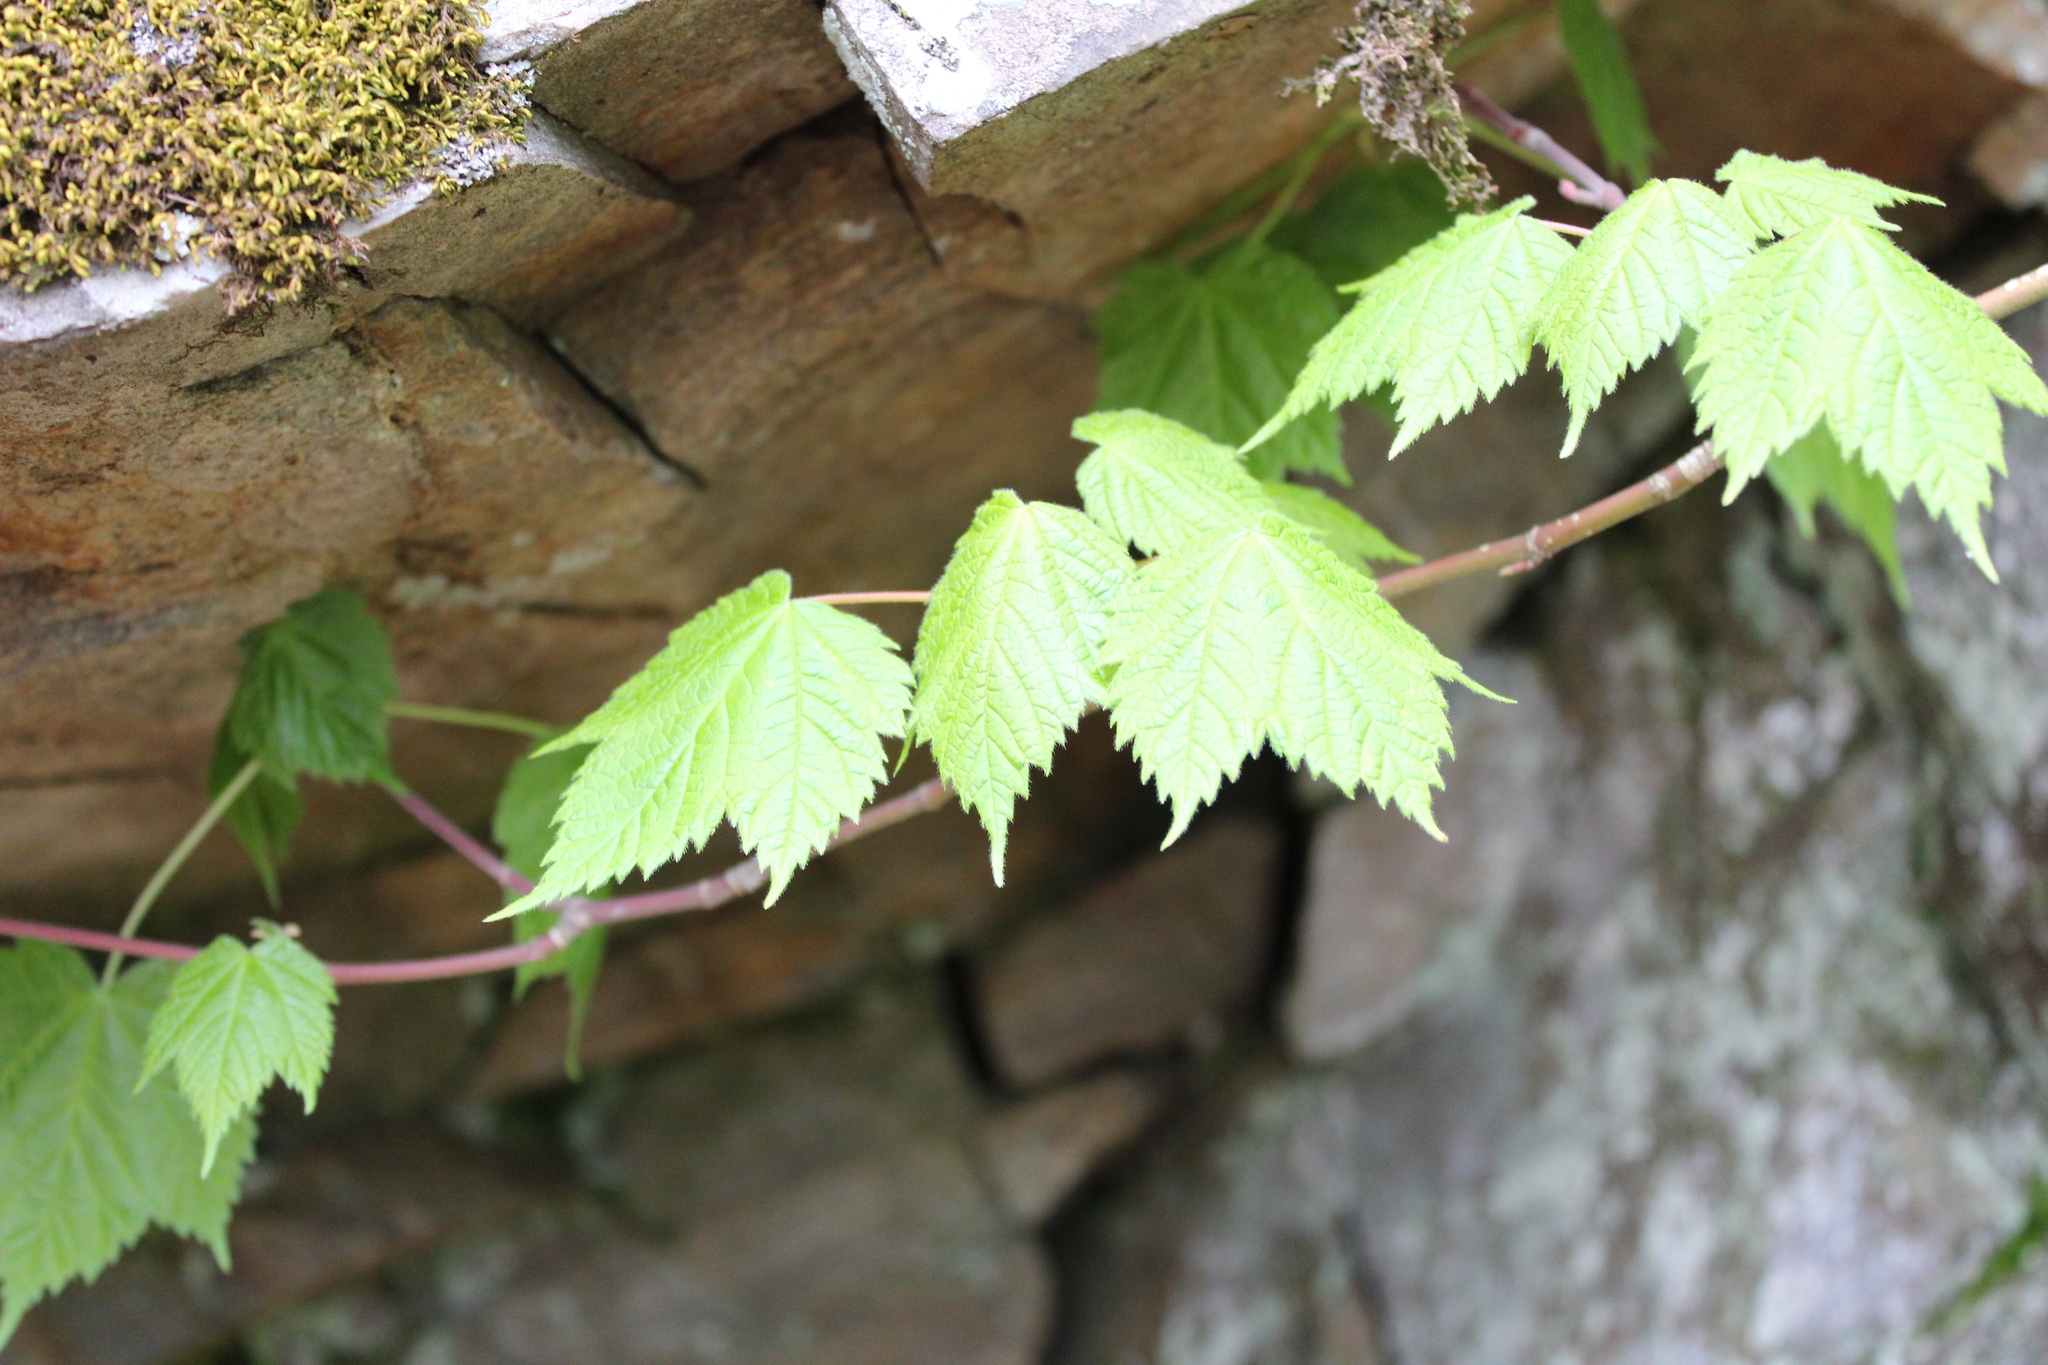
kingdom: Plantae
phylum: Tracheophyta
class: Magnoliopsida
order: Sapindales
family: Sapindaceae
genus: Acer
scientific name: Acer spicatum
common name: Mountain maple
